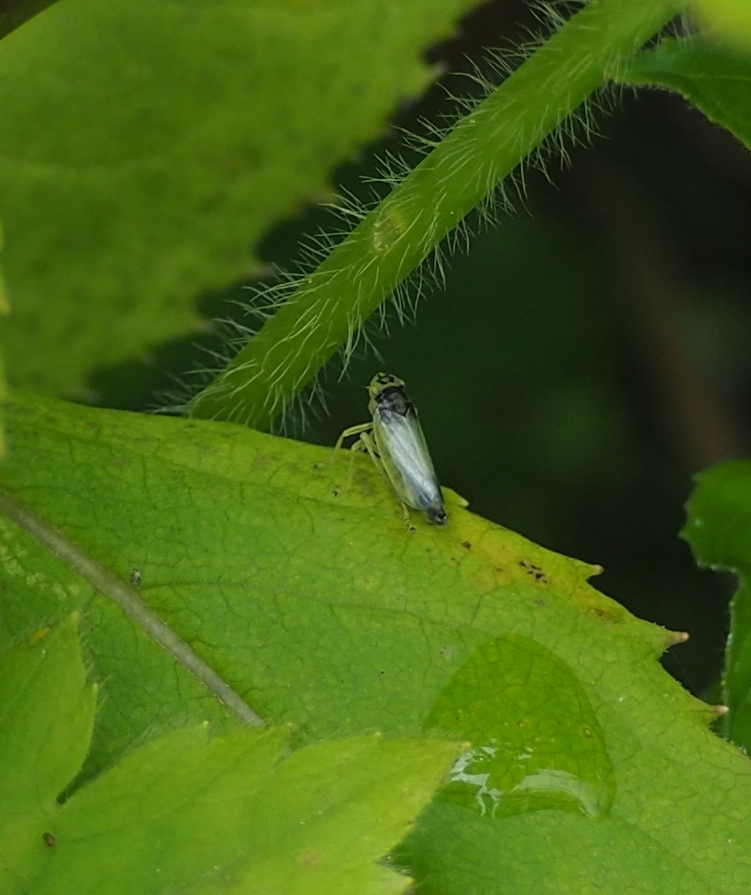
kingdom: Animalia
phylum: Arthropoda
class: Insecta
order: Hemiptera
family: Cicadellidae
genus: Evacanthus
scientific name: Evacanthus interruptus
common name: Leafhopper
